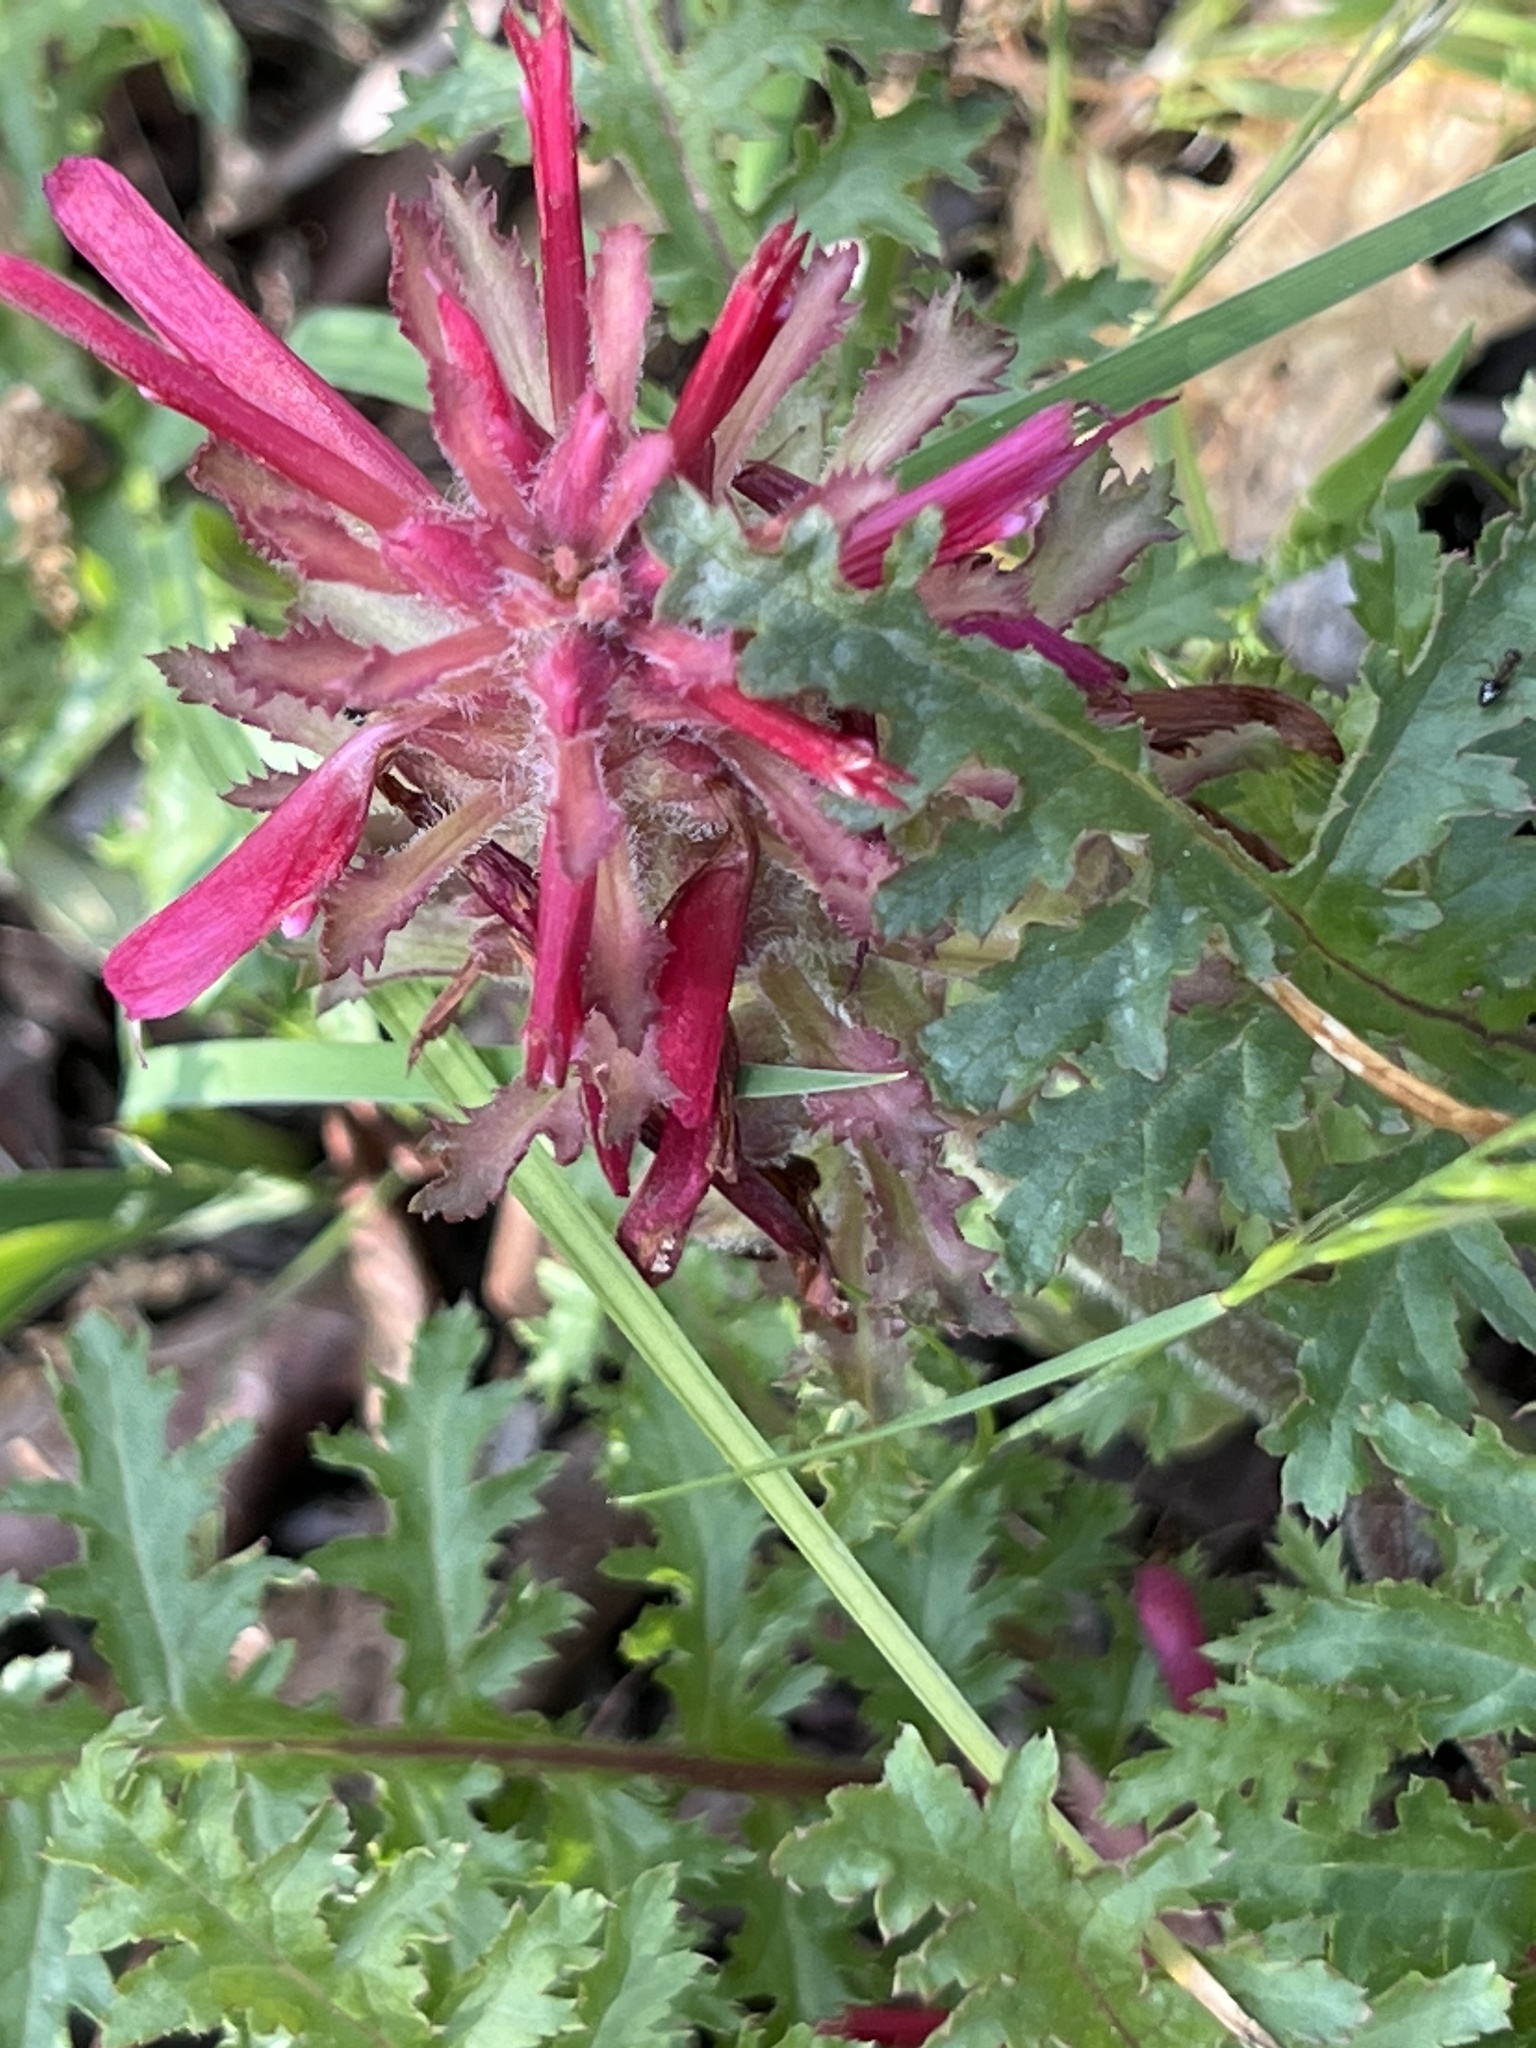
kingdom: Plantae
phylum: Tracheophyta
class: Magnoliopsida
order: Lamiales
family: Orobanchaceae
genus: Pedicularis
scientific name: Pedicularis densiflora
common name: Indian warrior
